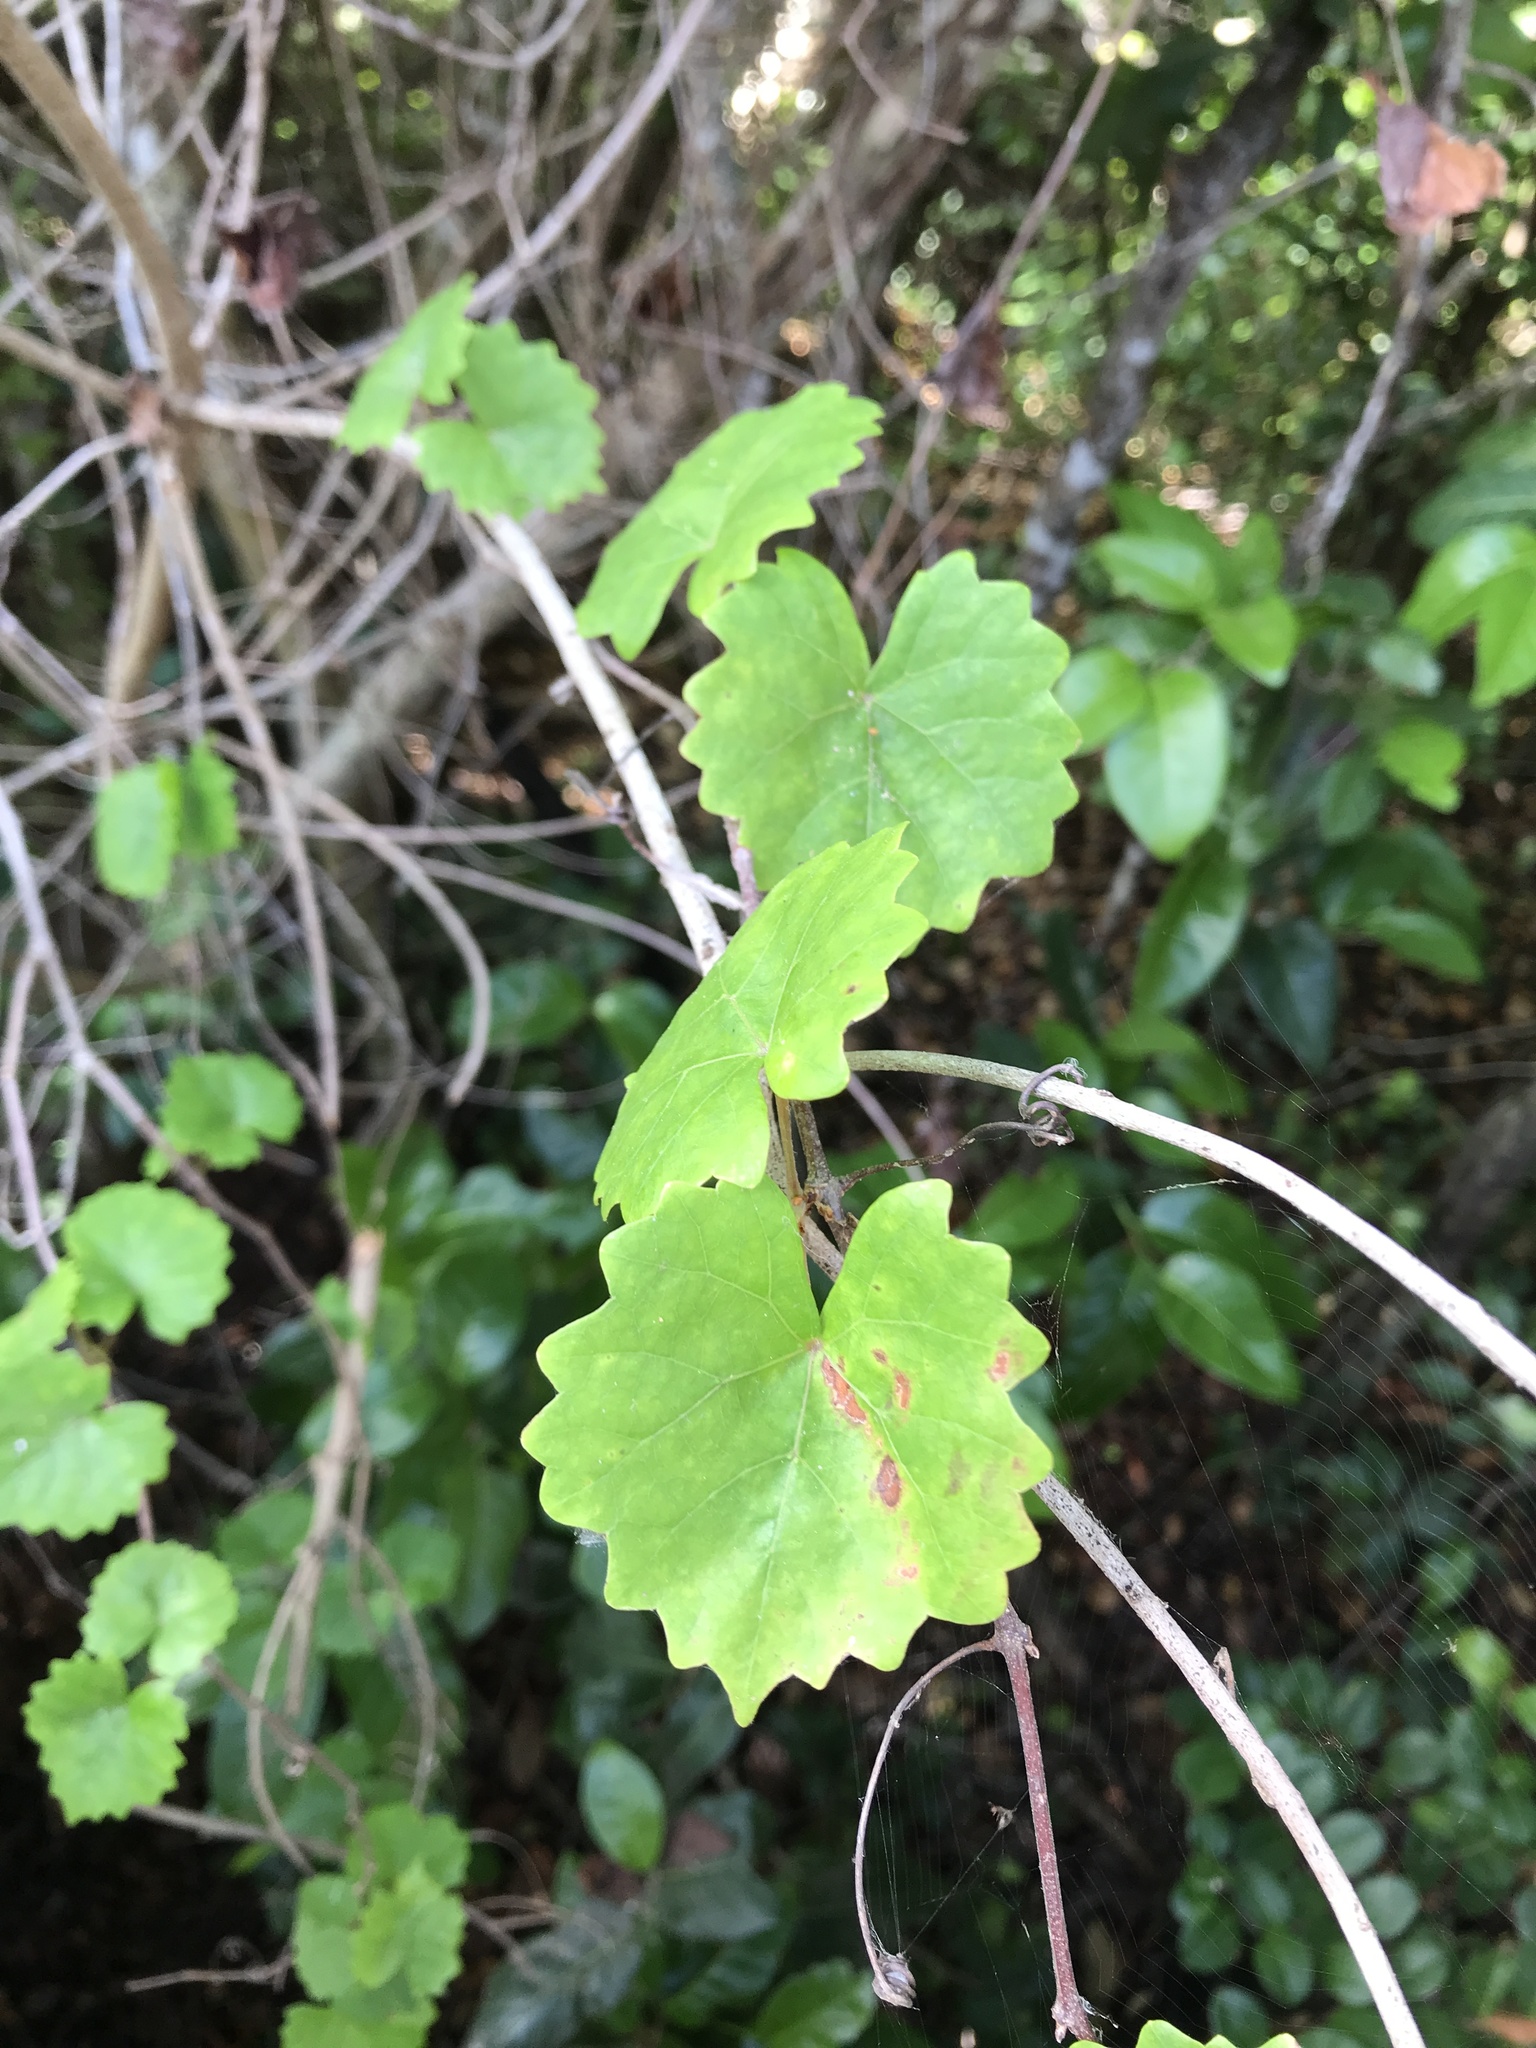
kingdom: Plantae
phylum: Tracheophyta
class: Magnoliopsida
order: Vitales
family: Vitaceae
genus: Vitis
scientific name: Vitis rotundifolia
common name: Muscadine grape
